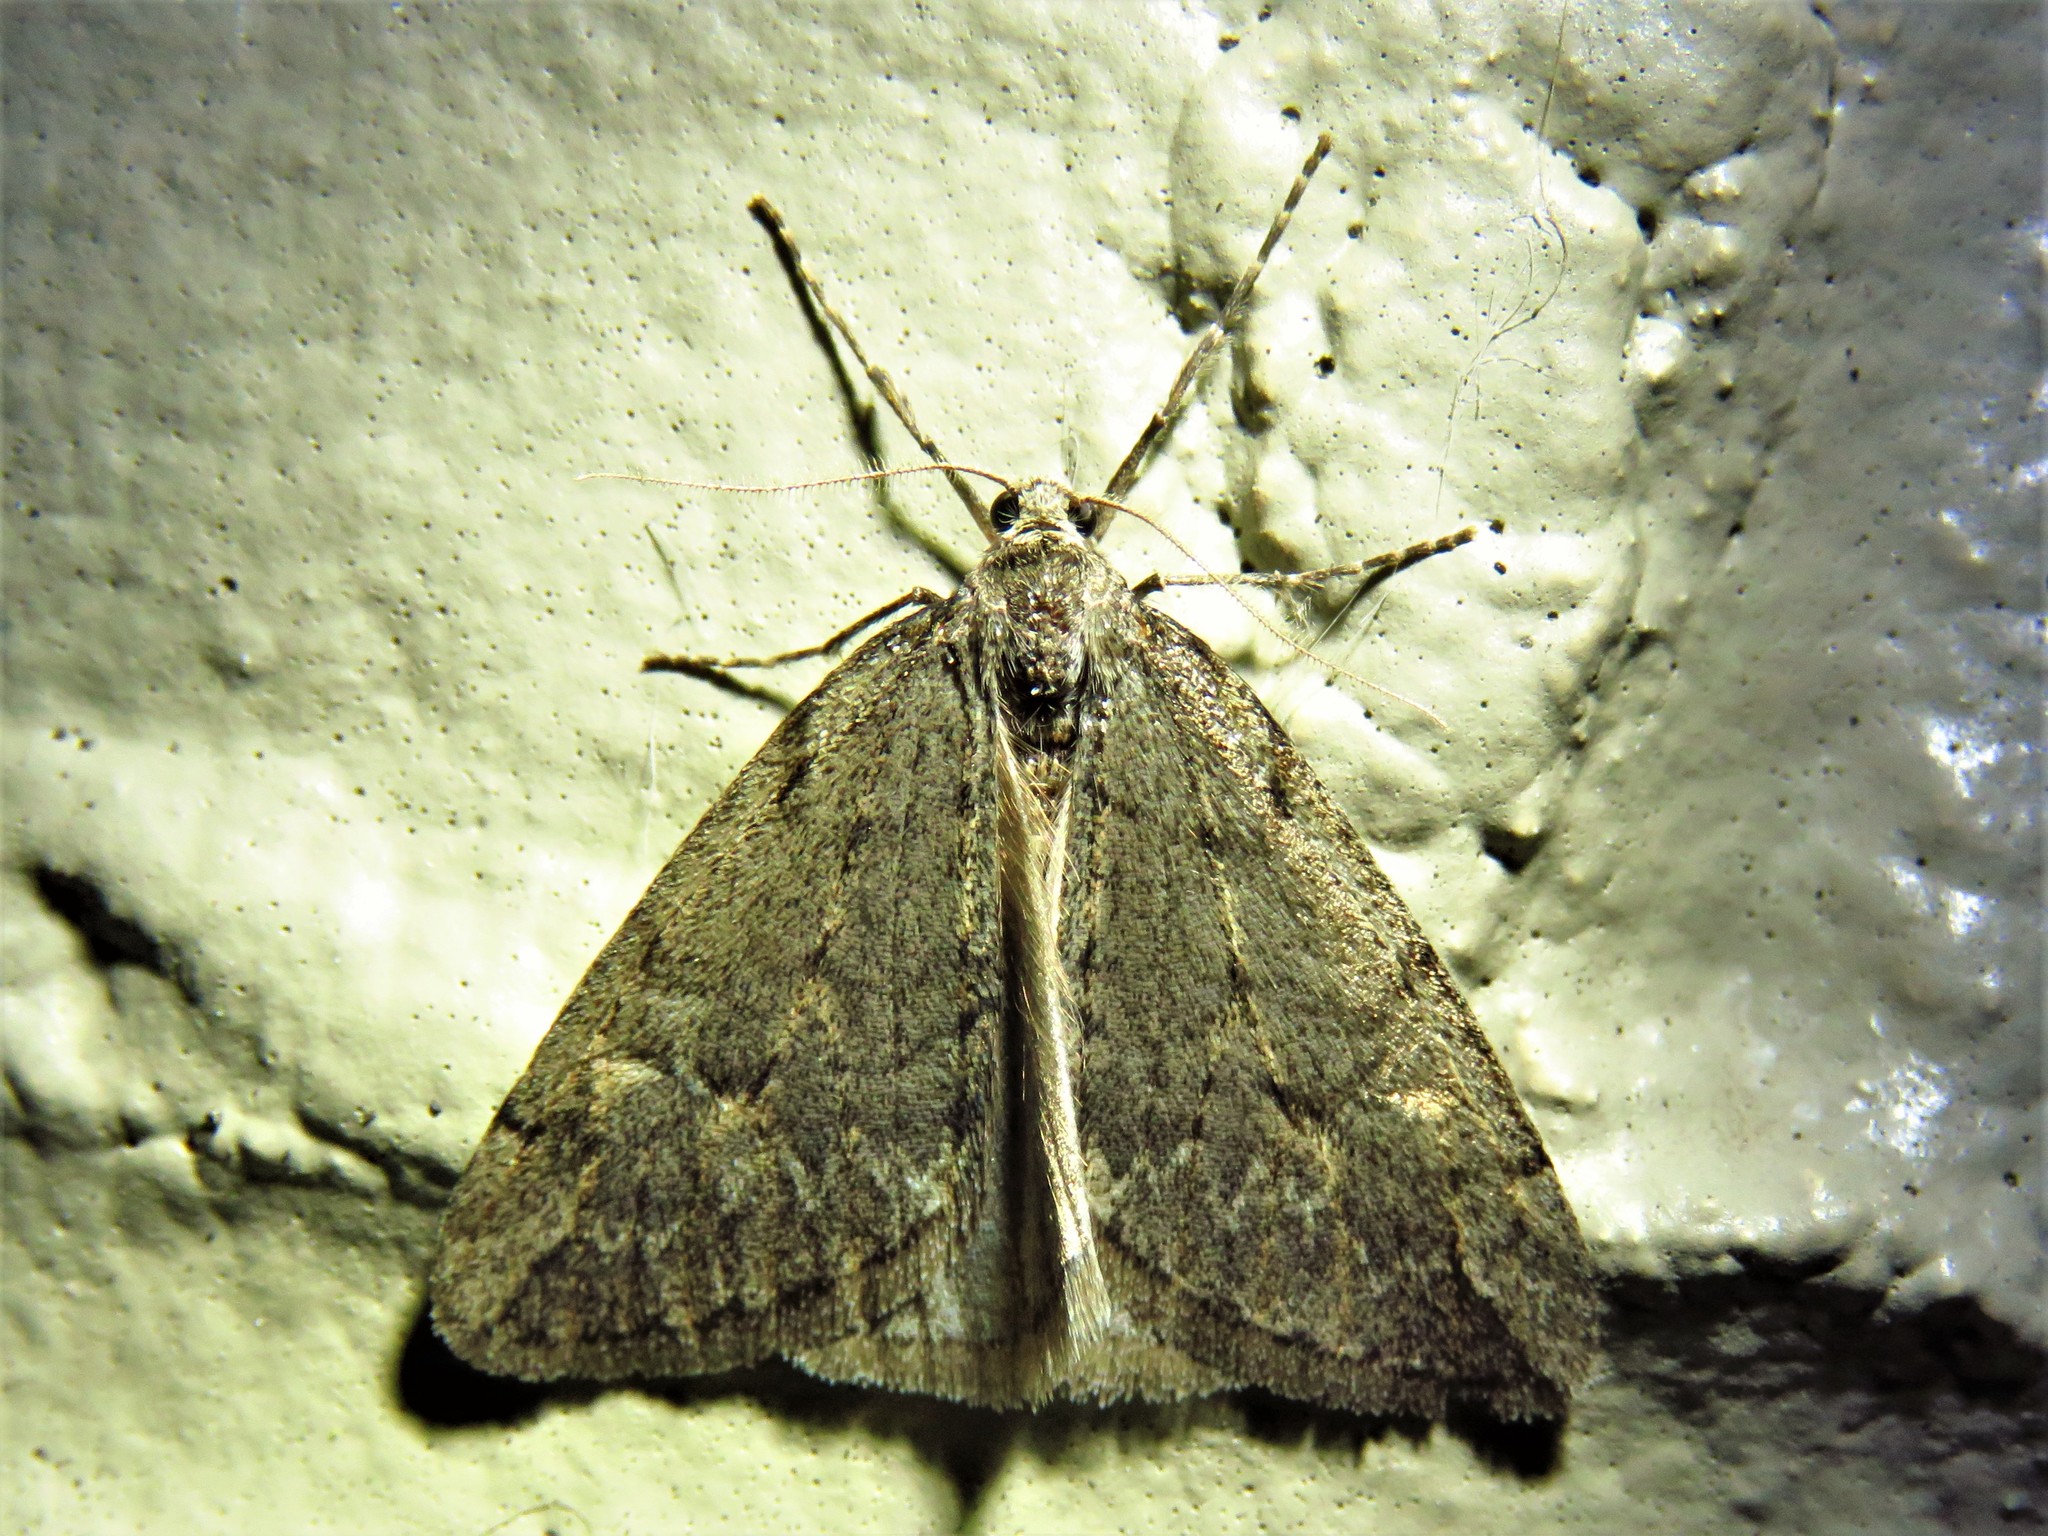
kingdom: Animalia
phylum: Arthropoda
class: Insecta
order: Lepidoptera
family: Geometridae
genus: Paleacrita
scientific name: Paleacrita vernata
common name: Spring cankerworm
